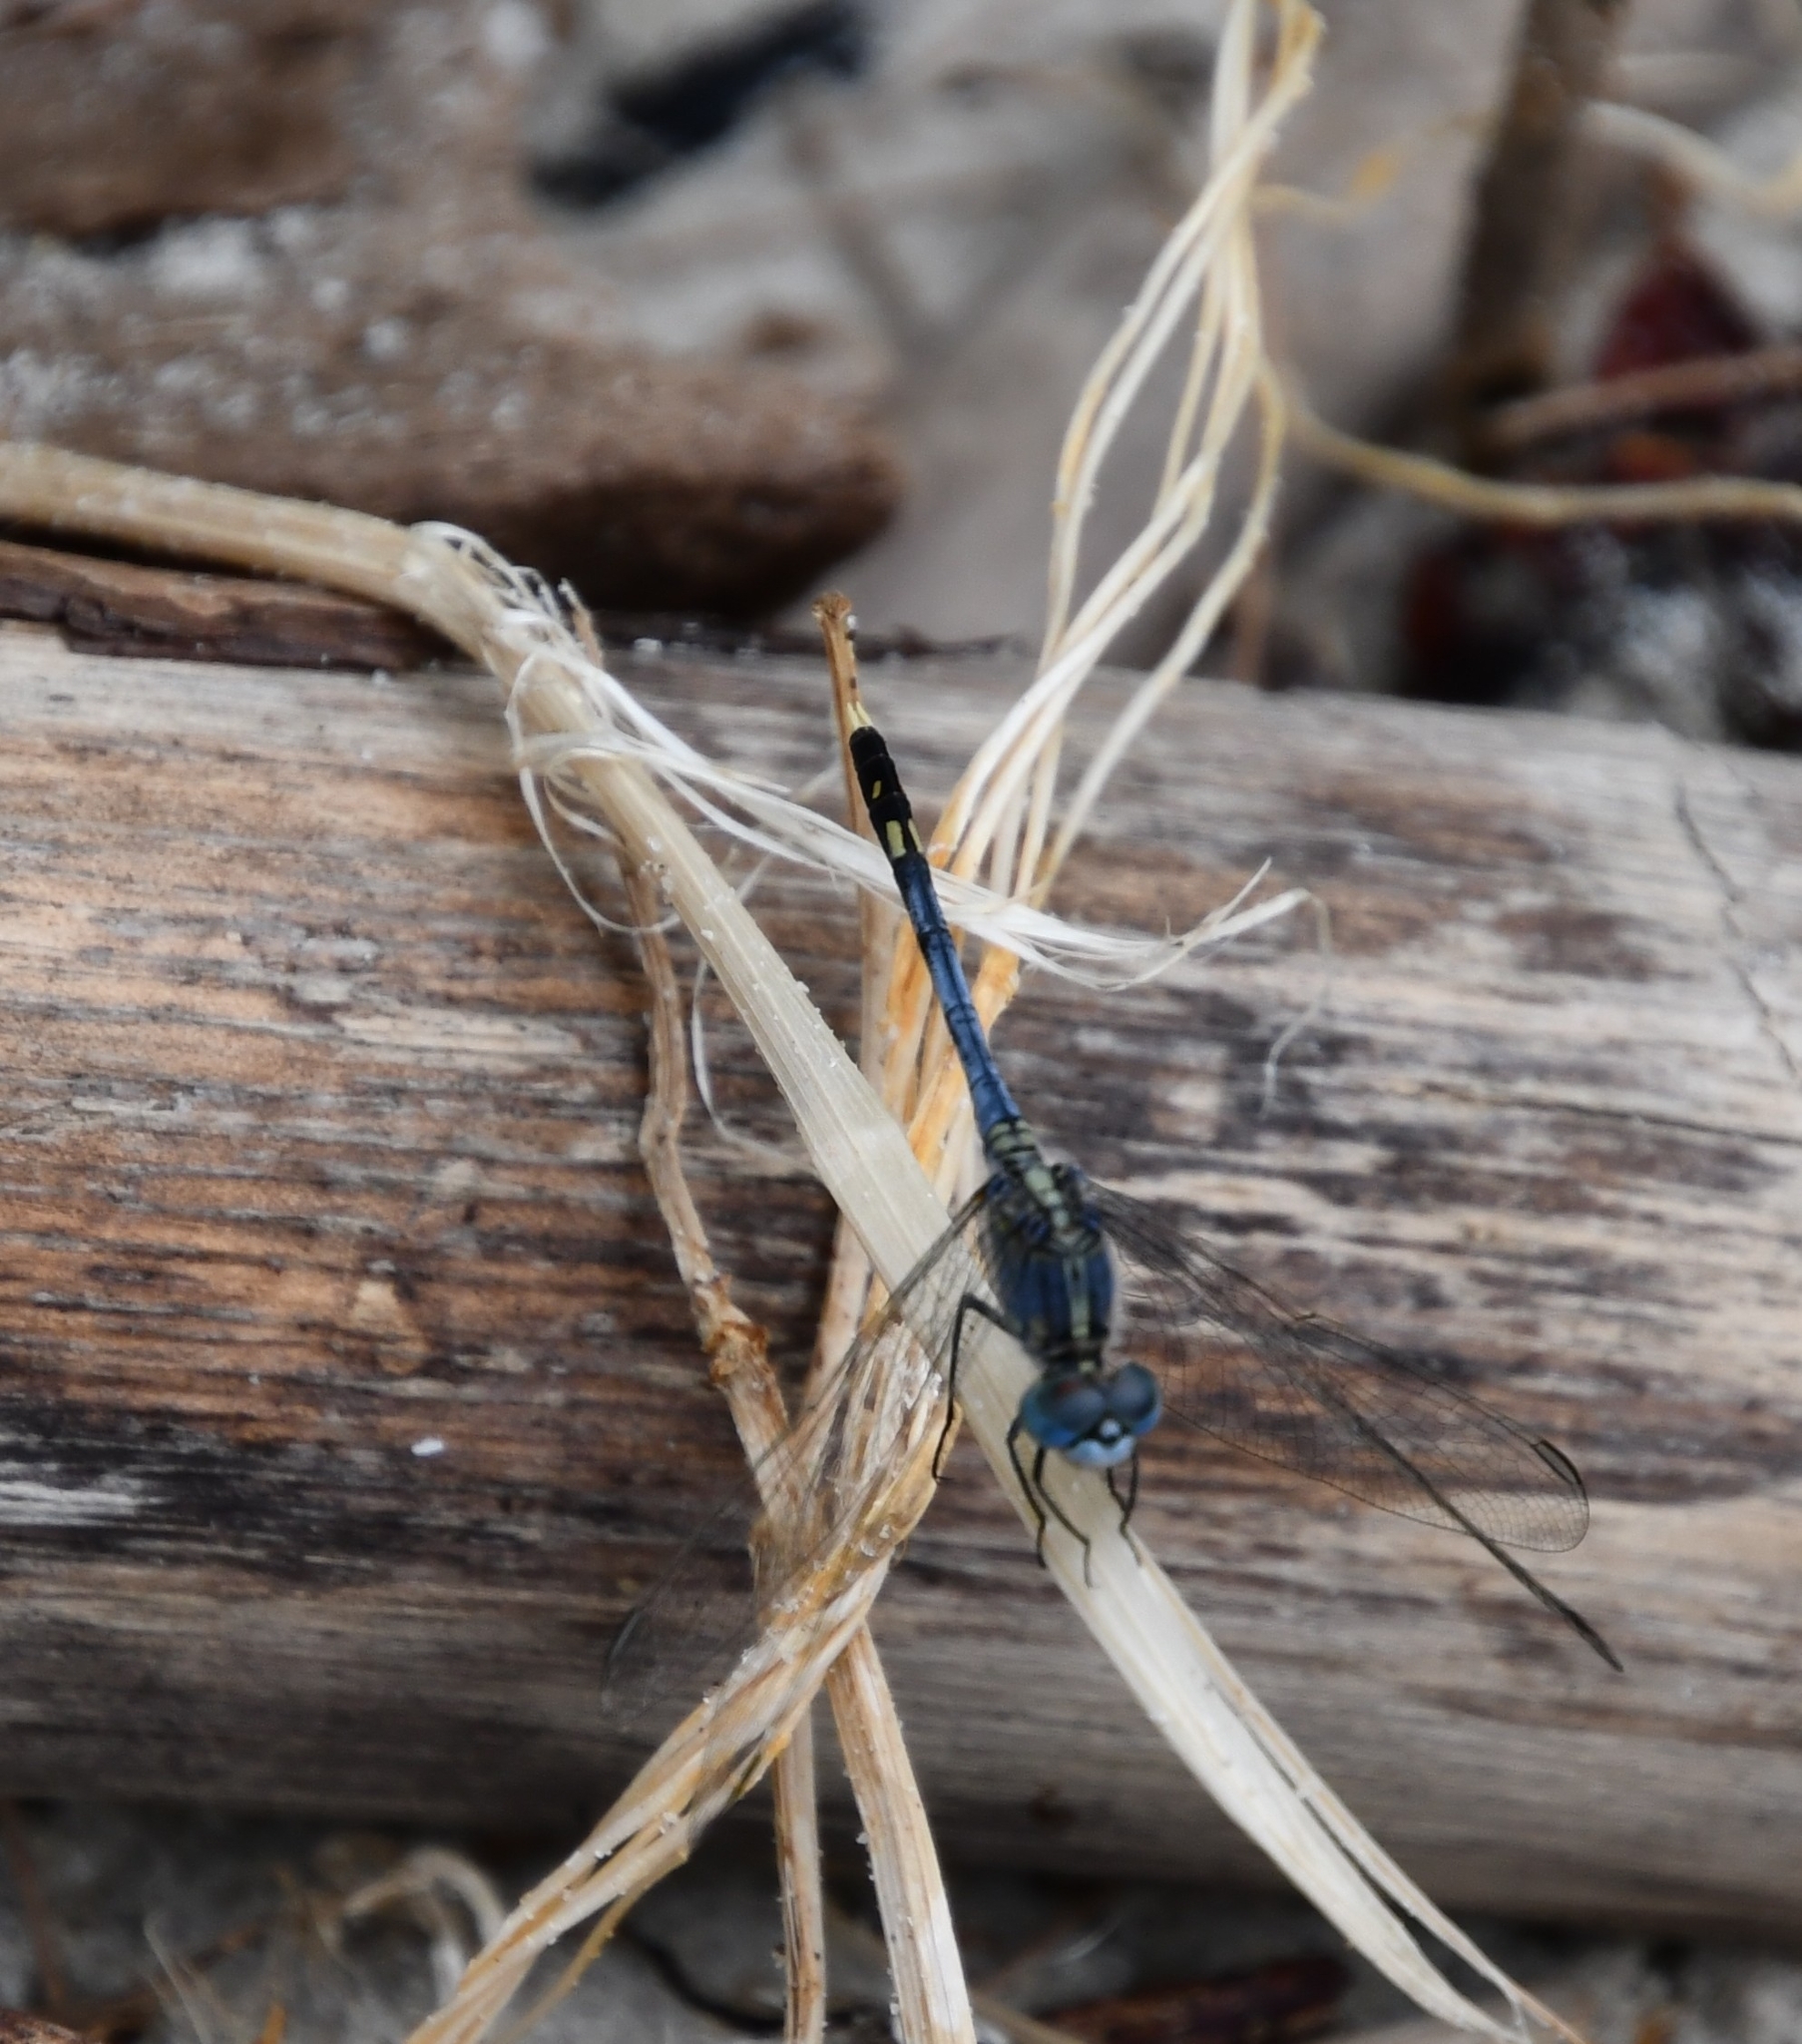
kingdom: Animalia
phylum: Arthropoda
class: Insecta
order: Odonata
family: Libellulidae
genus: Diplacodes
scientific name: Diplacodes trivialis
